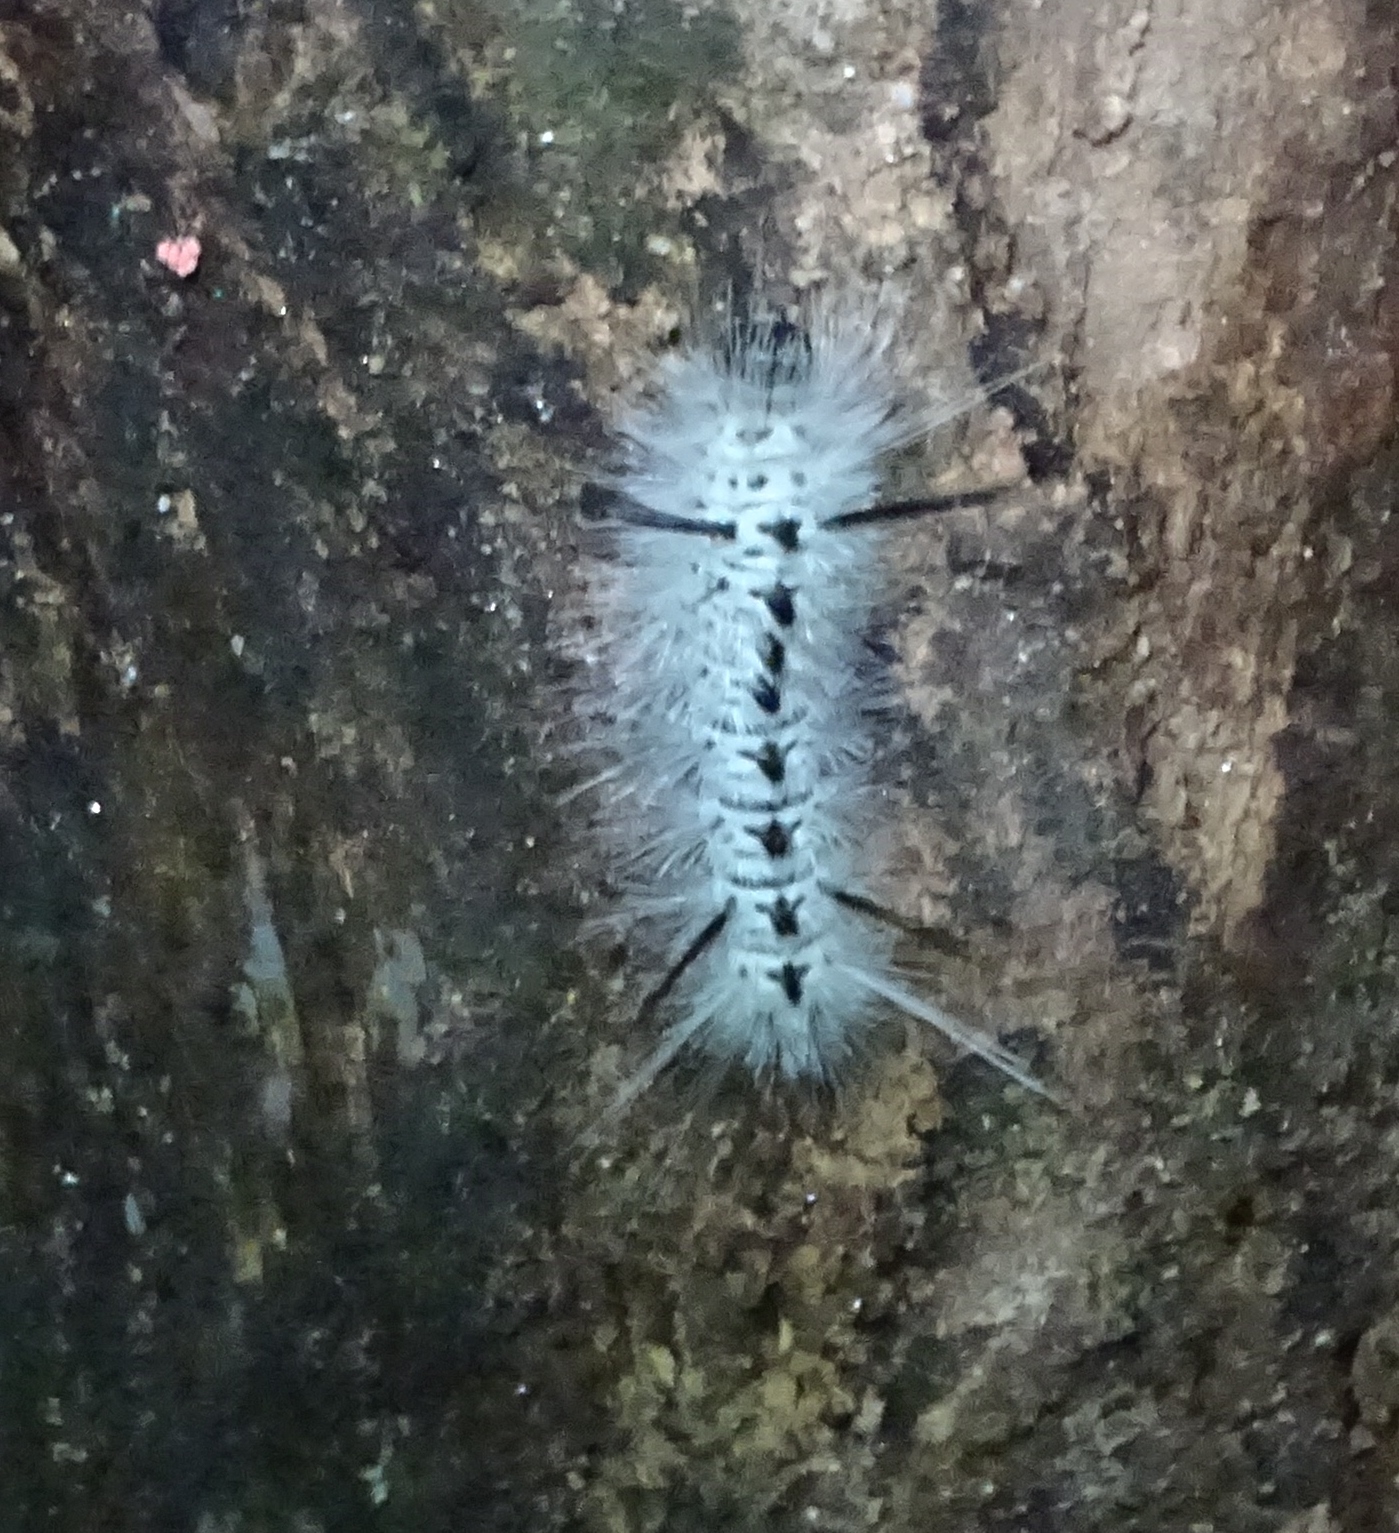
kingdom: Animalia
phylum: Arthropoda
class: Insecta
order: Lepidoptera
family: Erebidae
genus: Lophocampa
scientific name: Lophocampa caryae
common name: Hickory tussock moth
